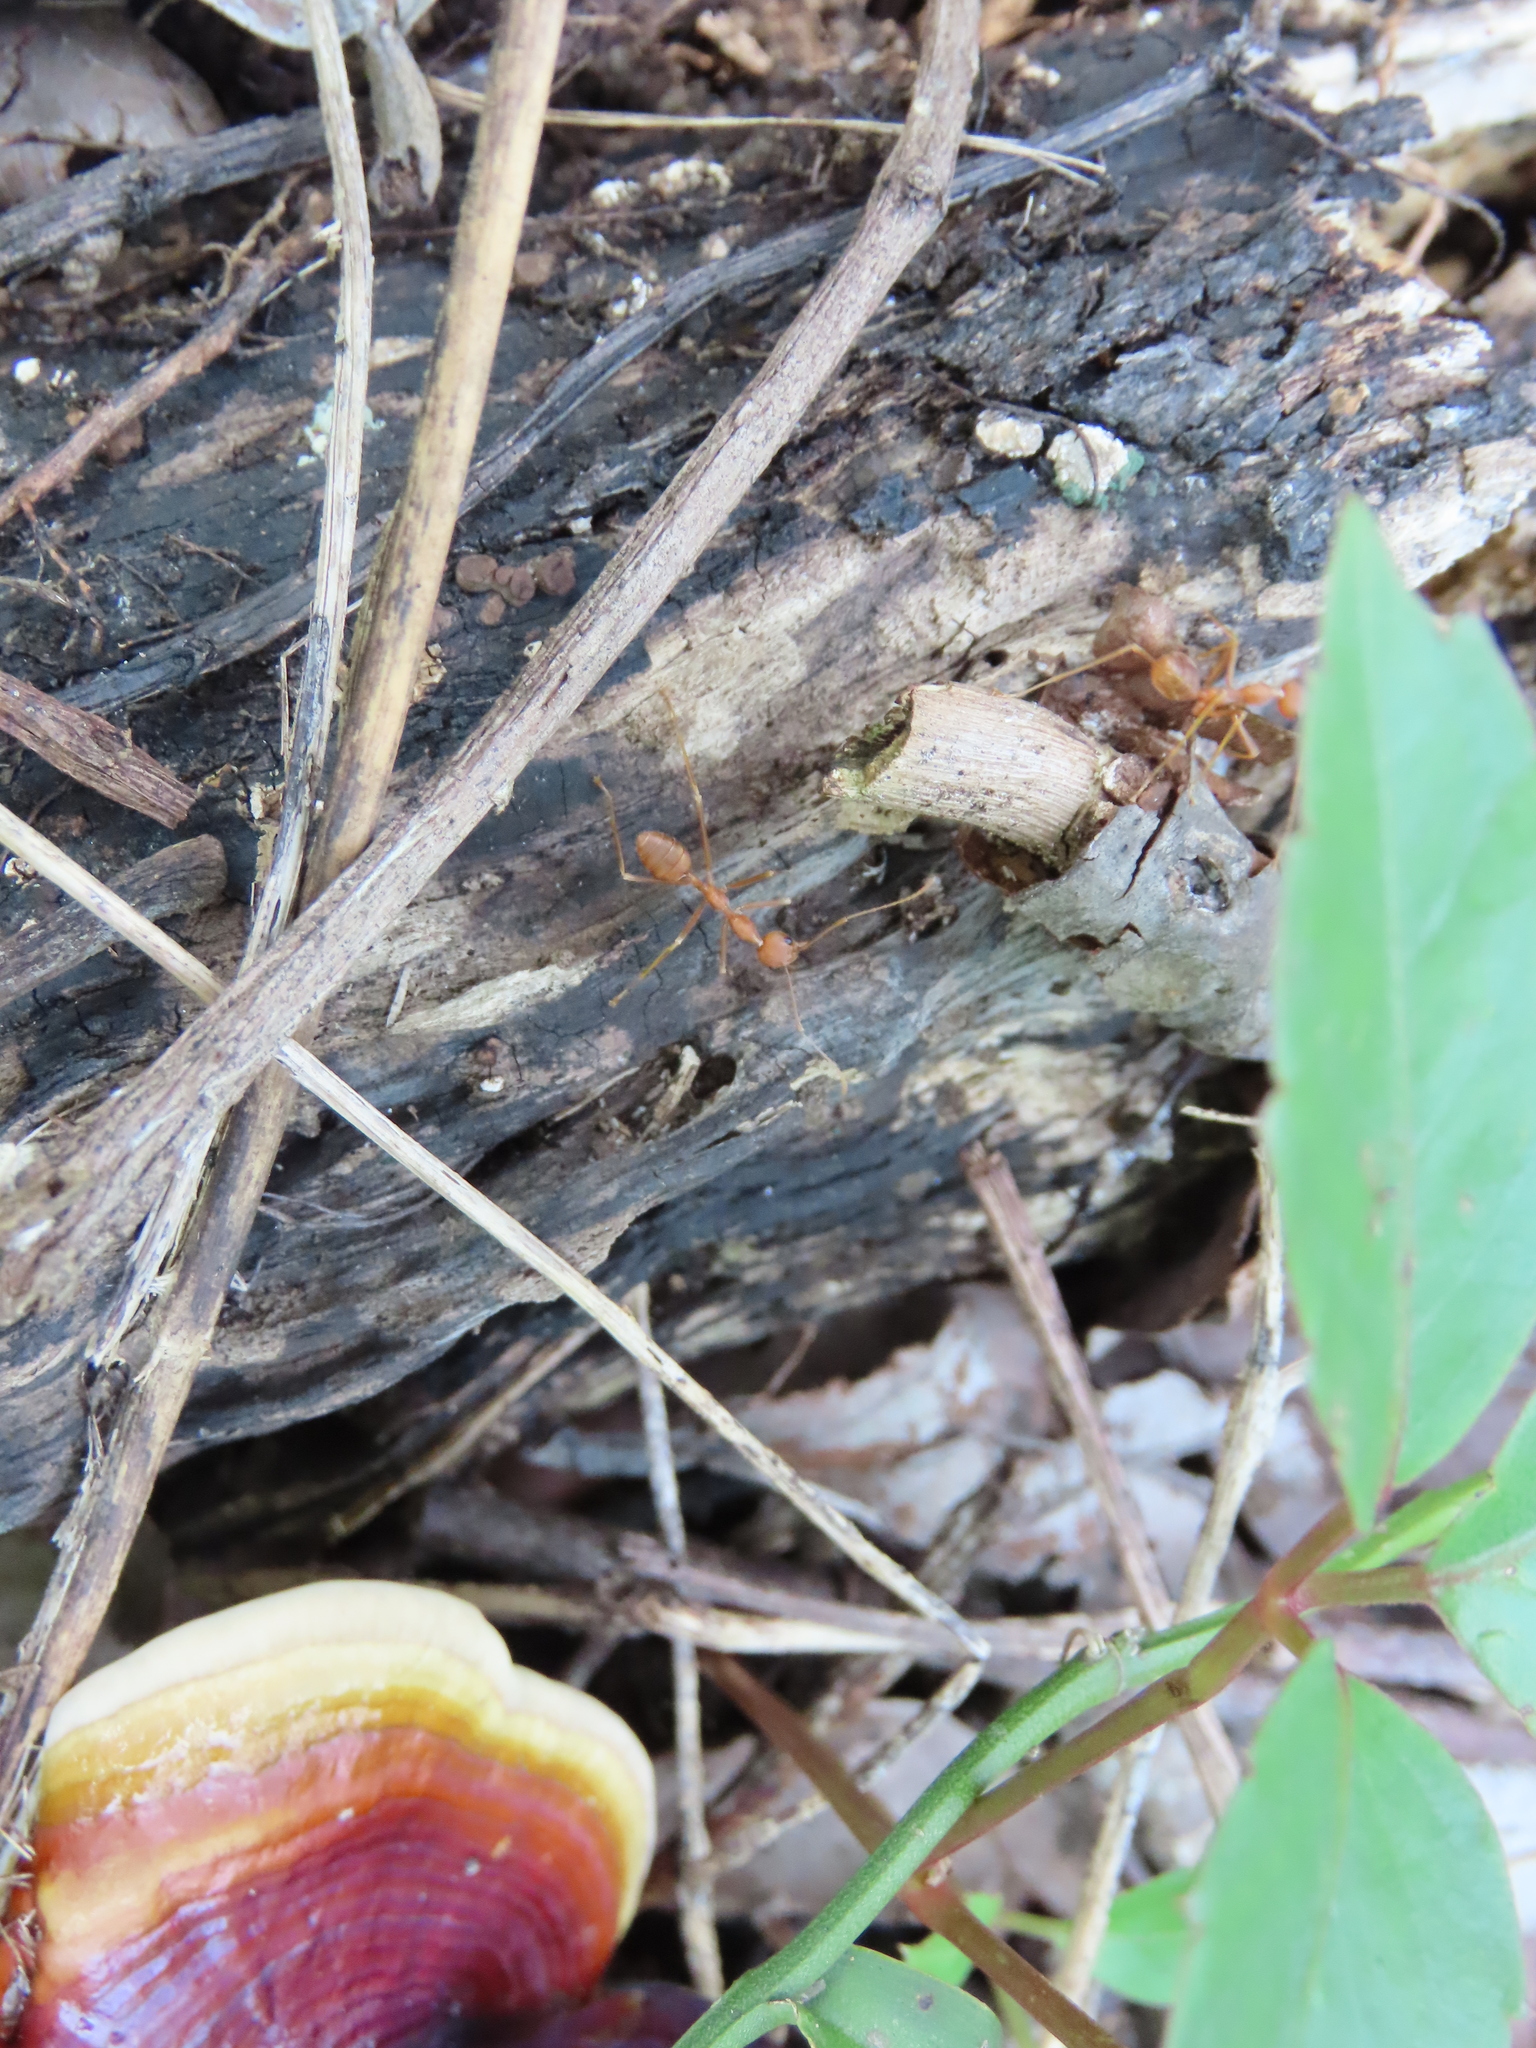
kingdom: Animalia
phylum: Arthropoda
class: Insecta
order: Hymenoptera
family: Formicidae
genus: Oecophylla
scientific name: Oecophylla smaragdina
